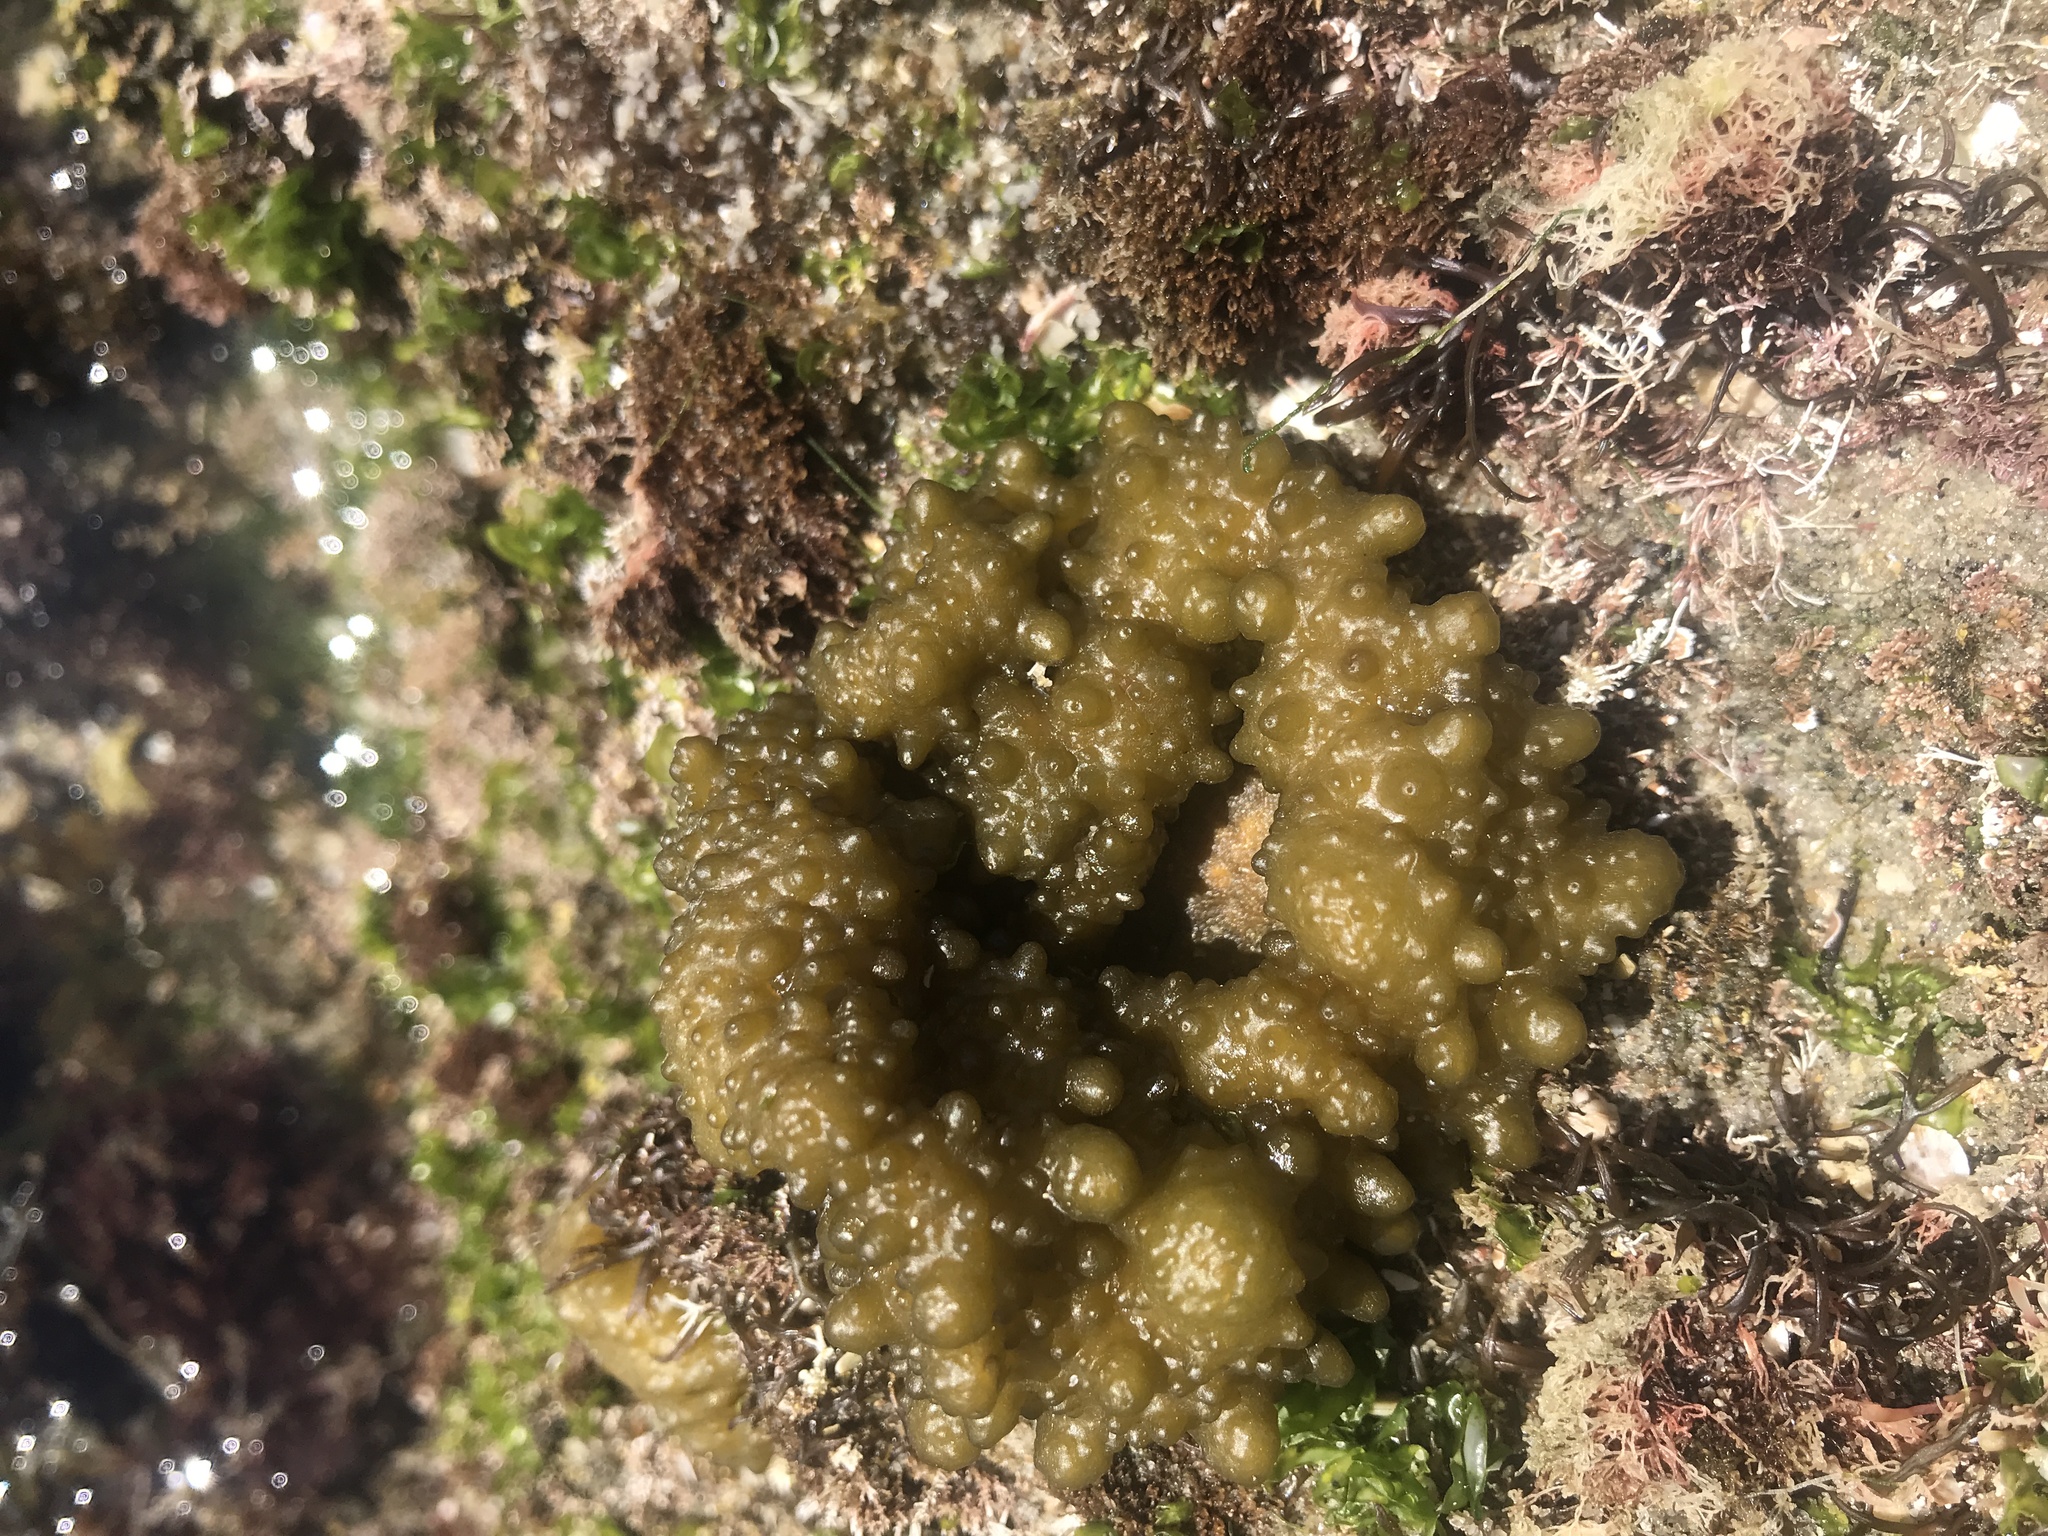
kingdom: Chromista
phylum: Ochrophyta
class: Phaeophyceae
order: Scytosiphonales
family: Scytosiphonaceae
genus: Colpomenia
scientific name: Colpomenia
